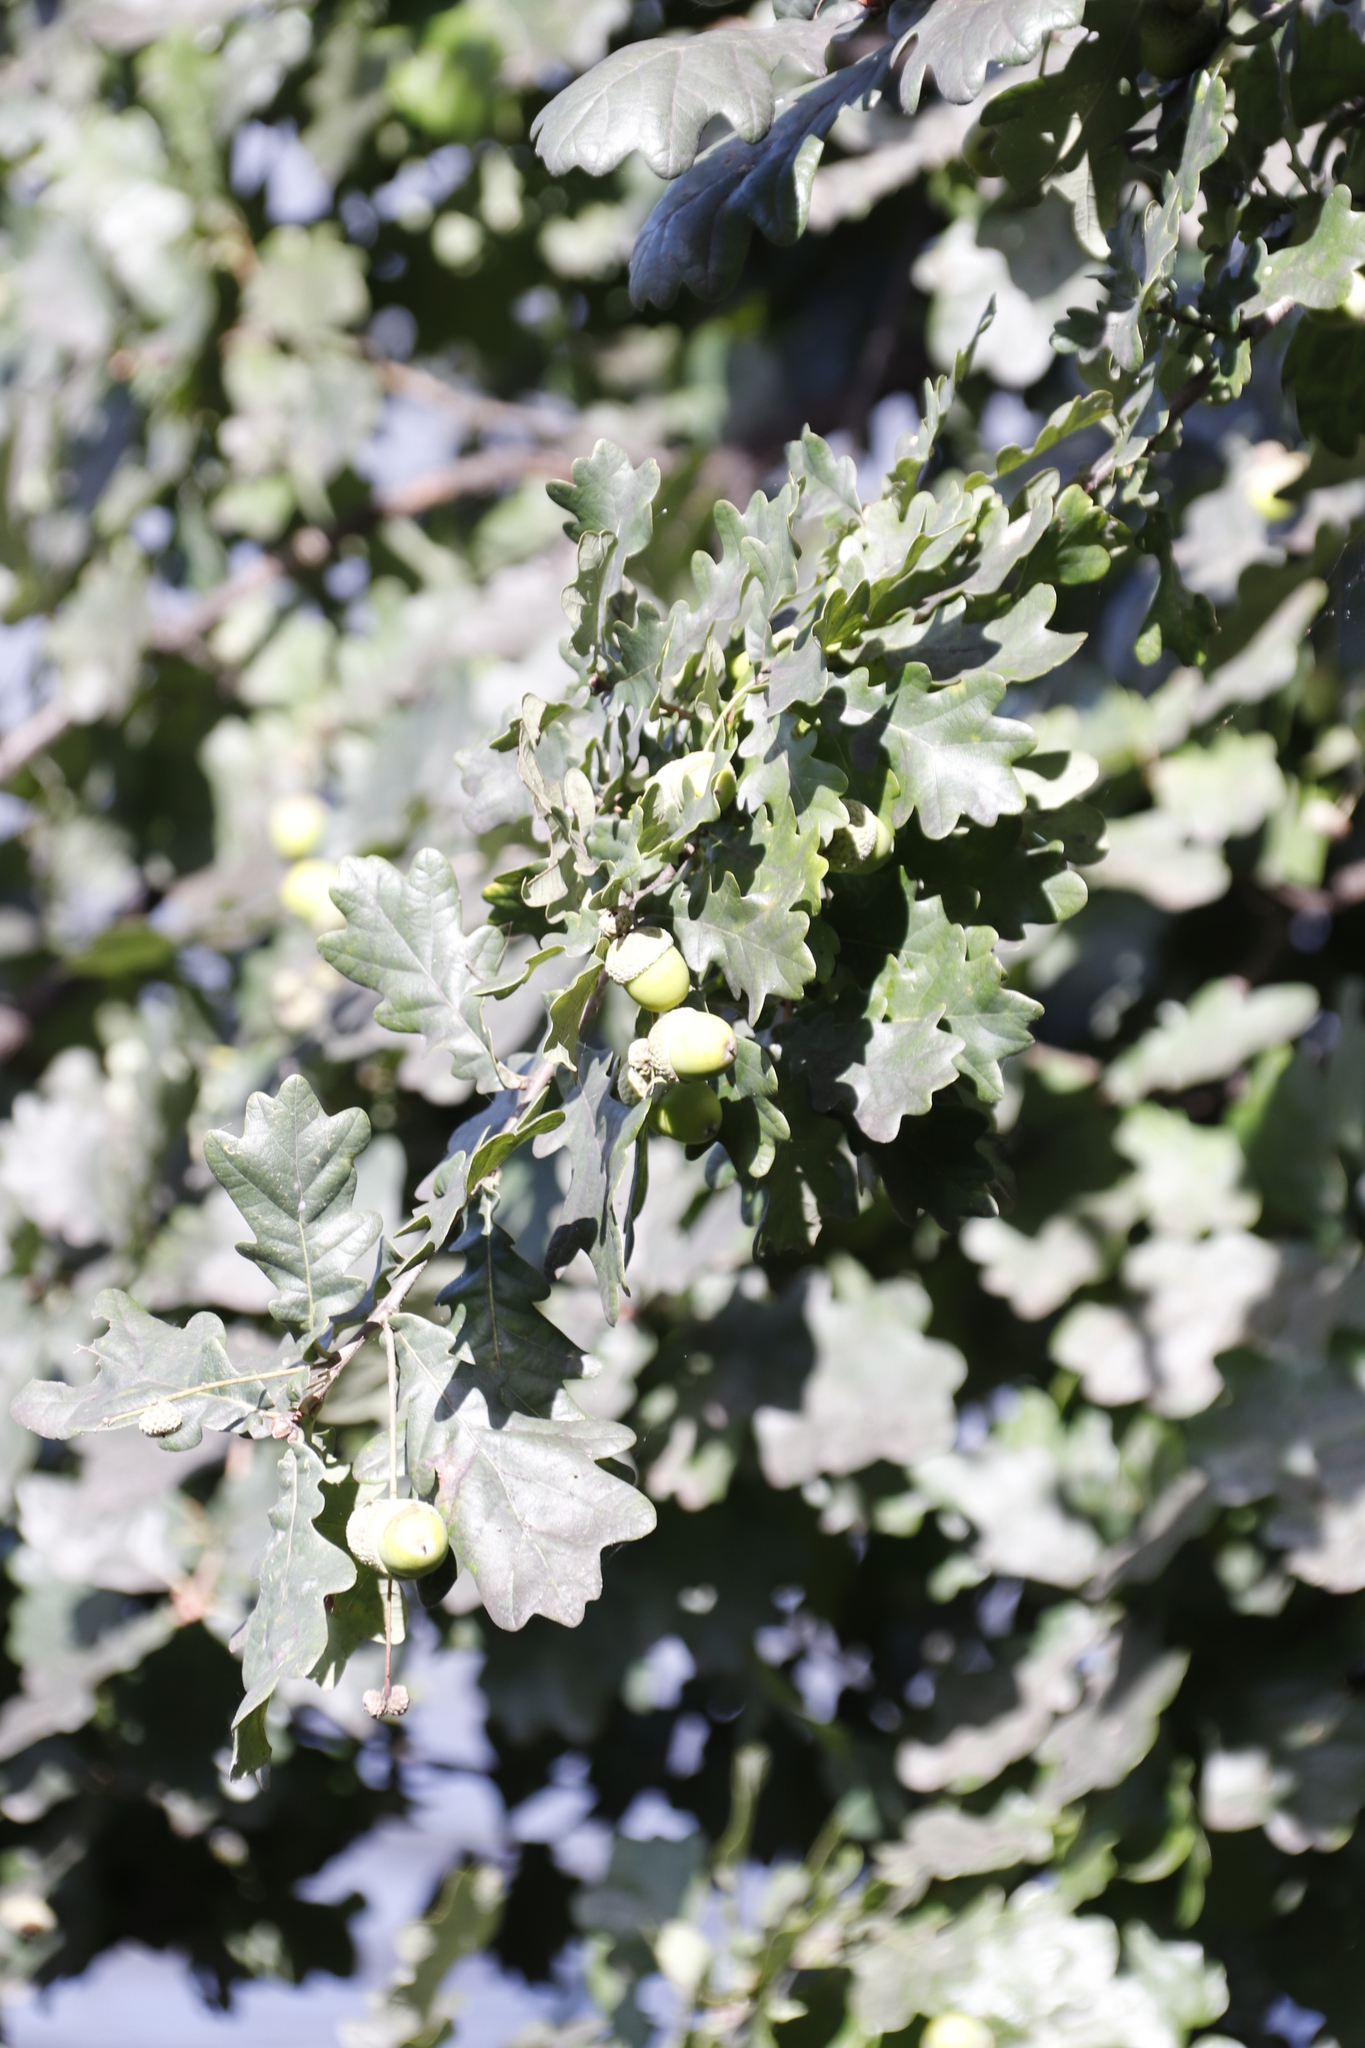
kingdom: Plantae
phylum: Tracheophyta
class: Magnoliopsida
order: Fagales
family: Fagaceae
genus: Quercus
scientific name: Quercus robur
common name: Pedunculate oak
